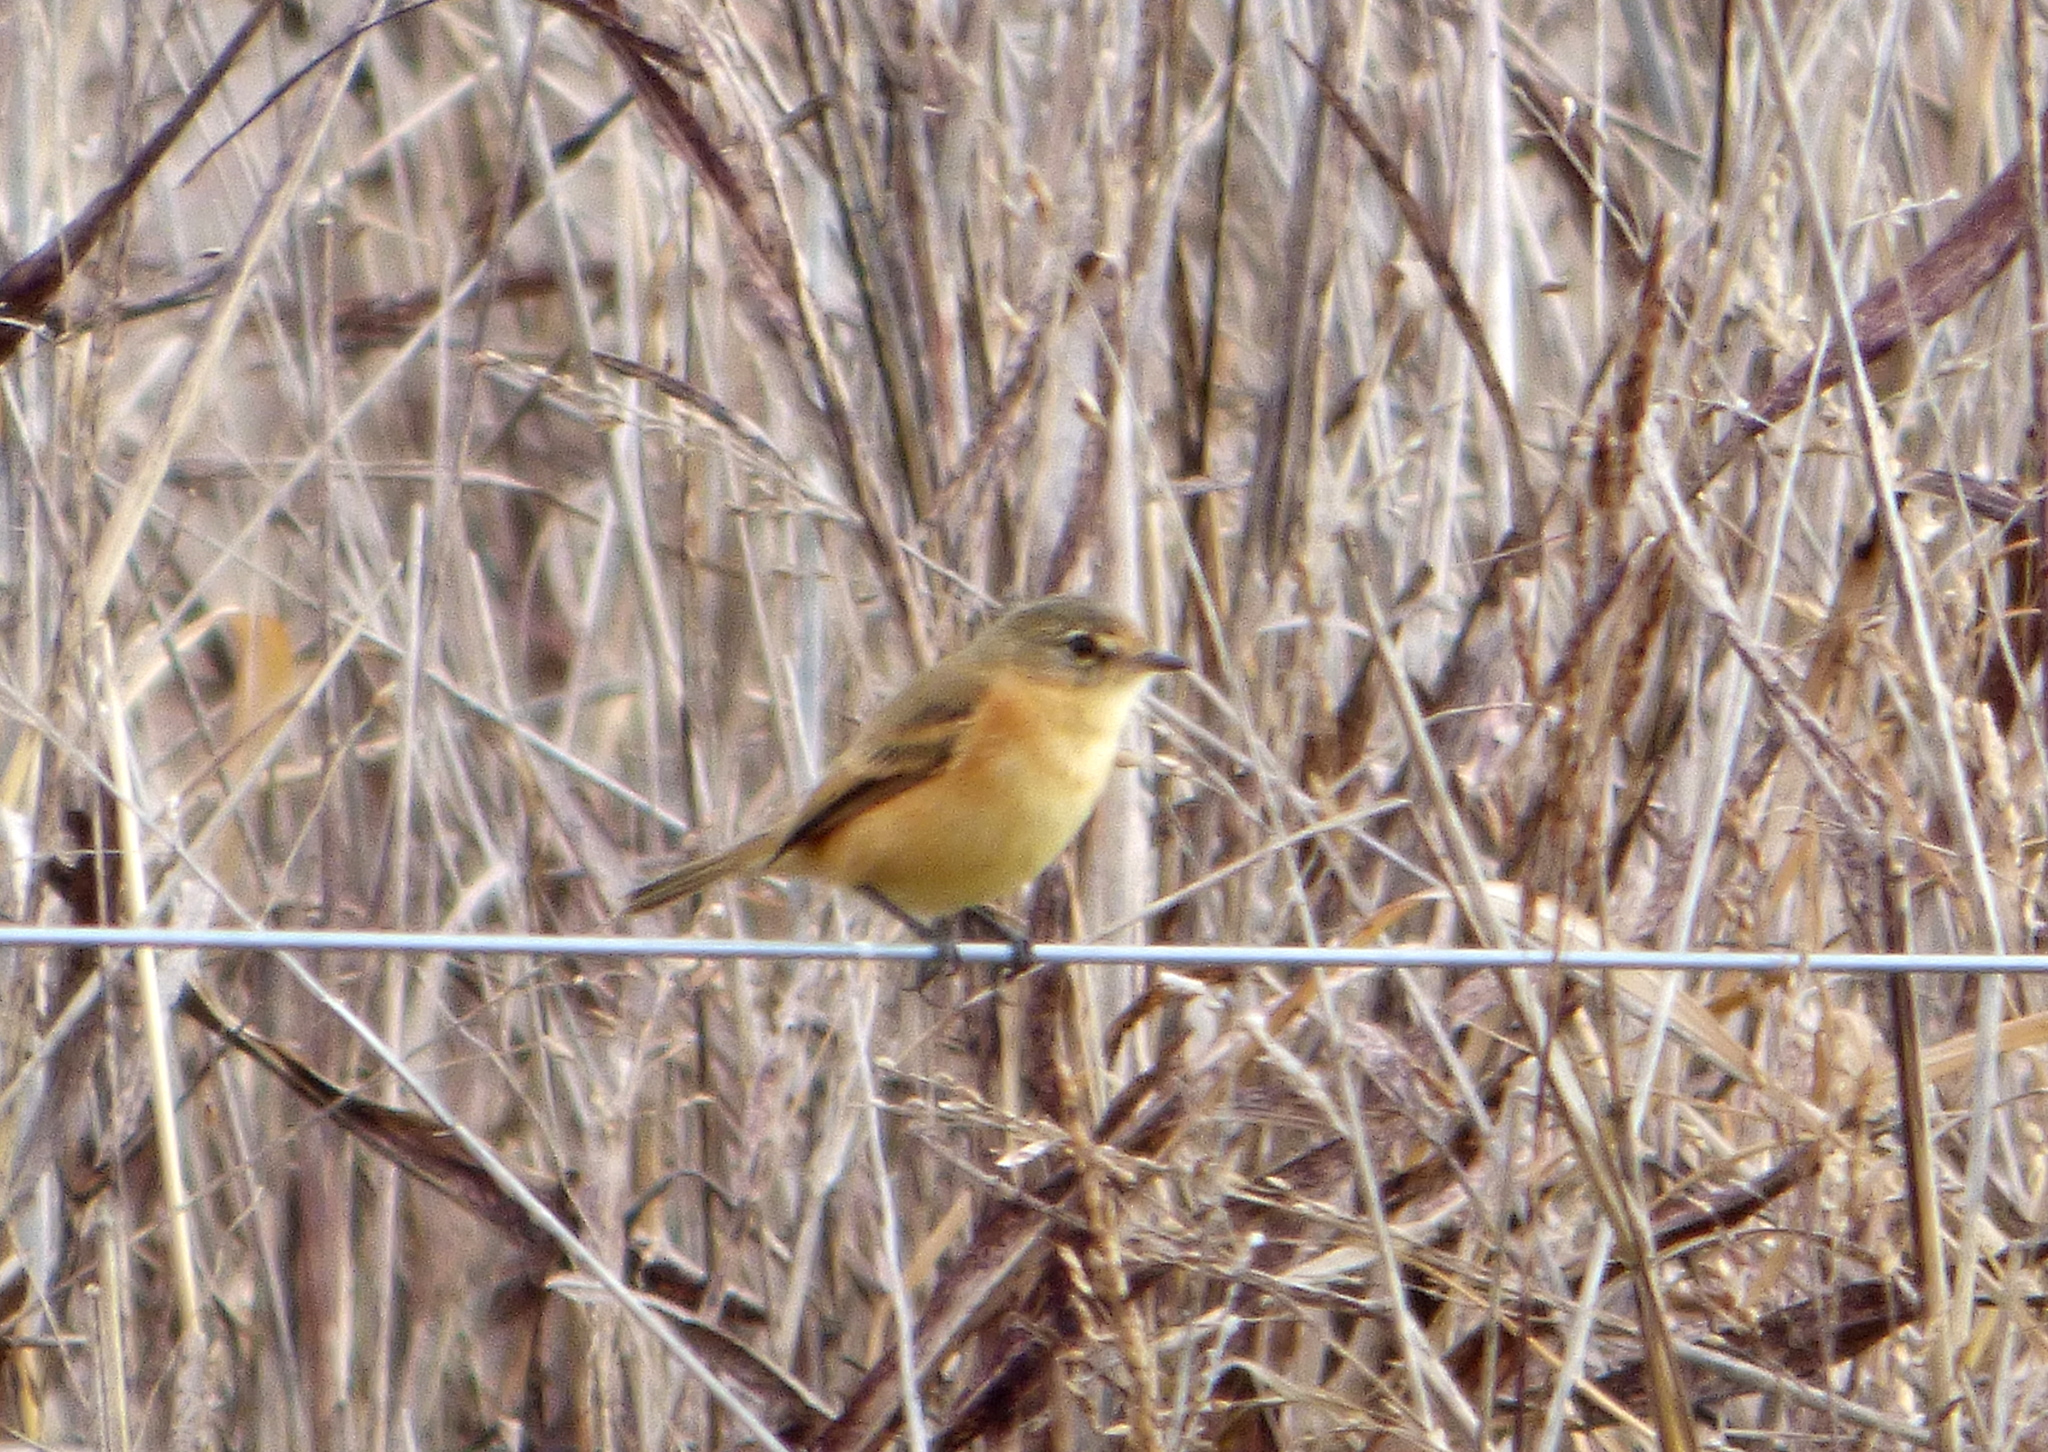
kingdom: Animalia
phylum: Chordata
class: Aves
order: Passeriformes
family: Tyrannidae
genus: Polystictus
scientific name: Polystictus pectoralis
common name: Bearded tachuri
